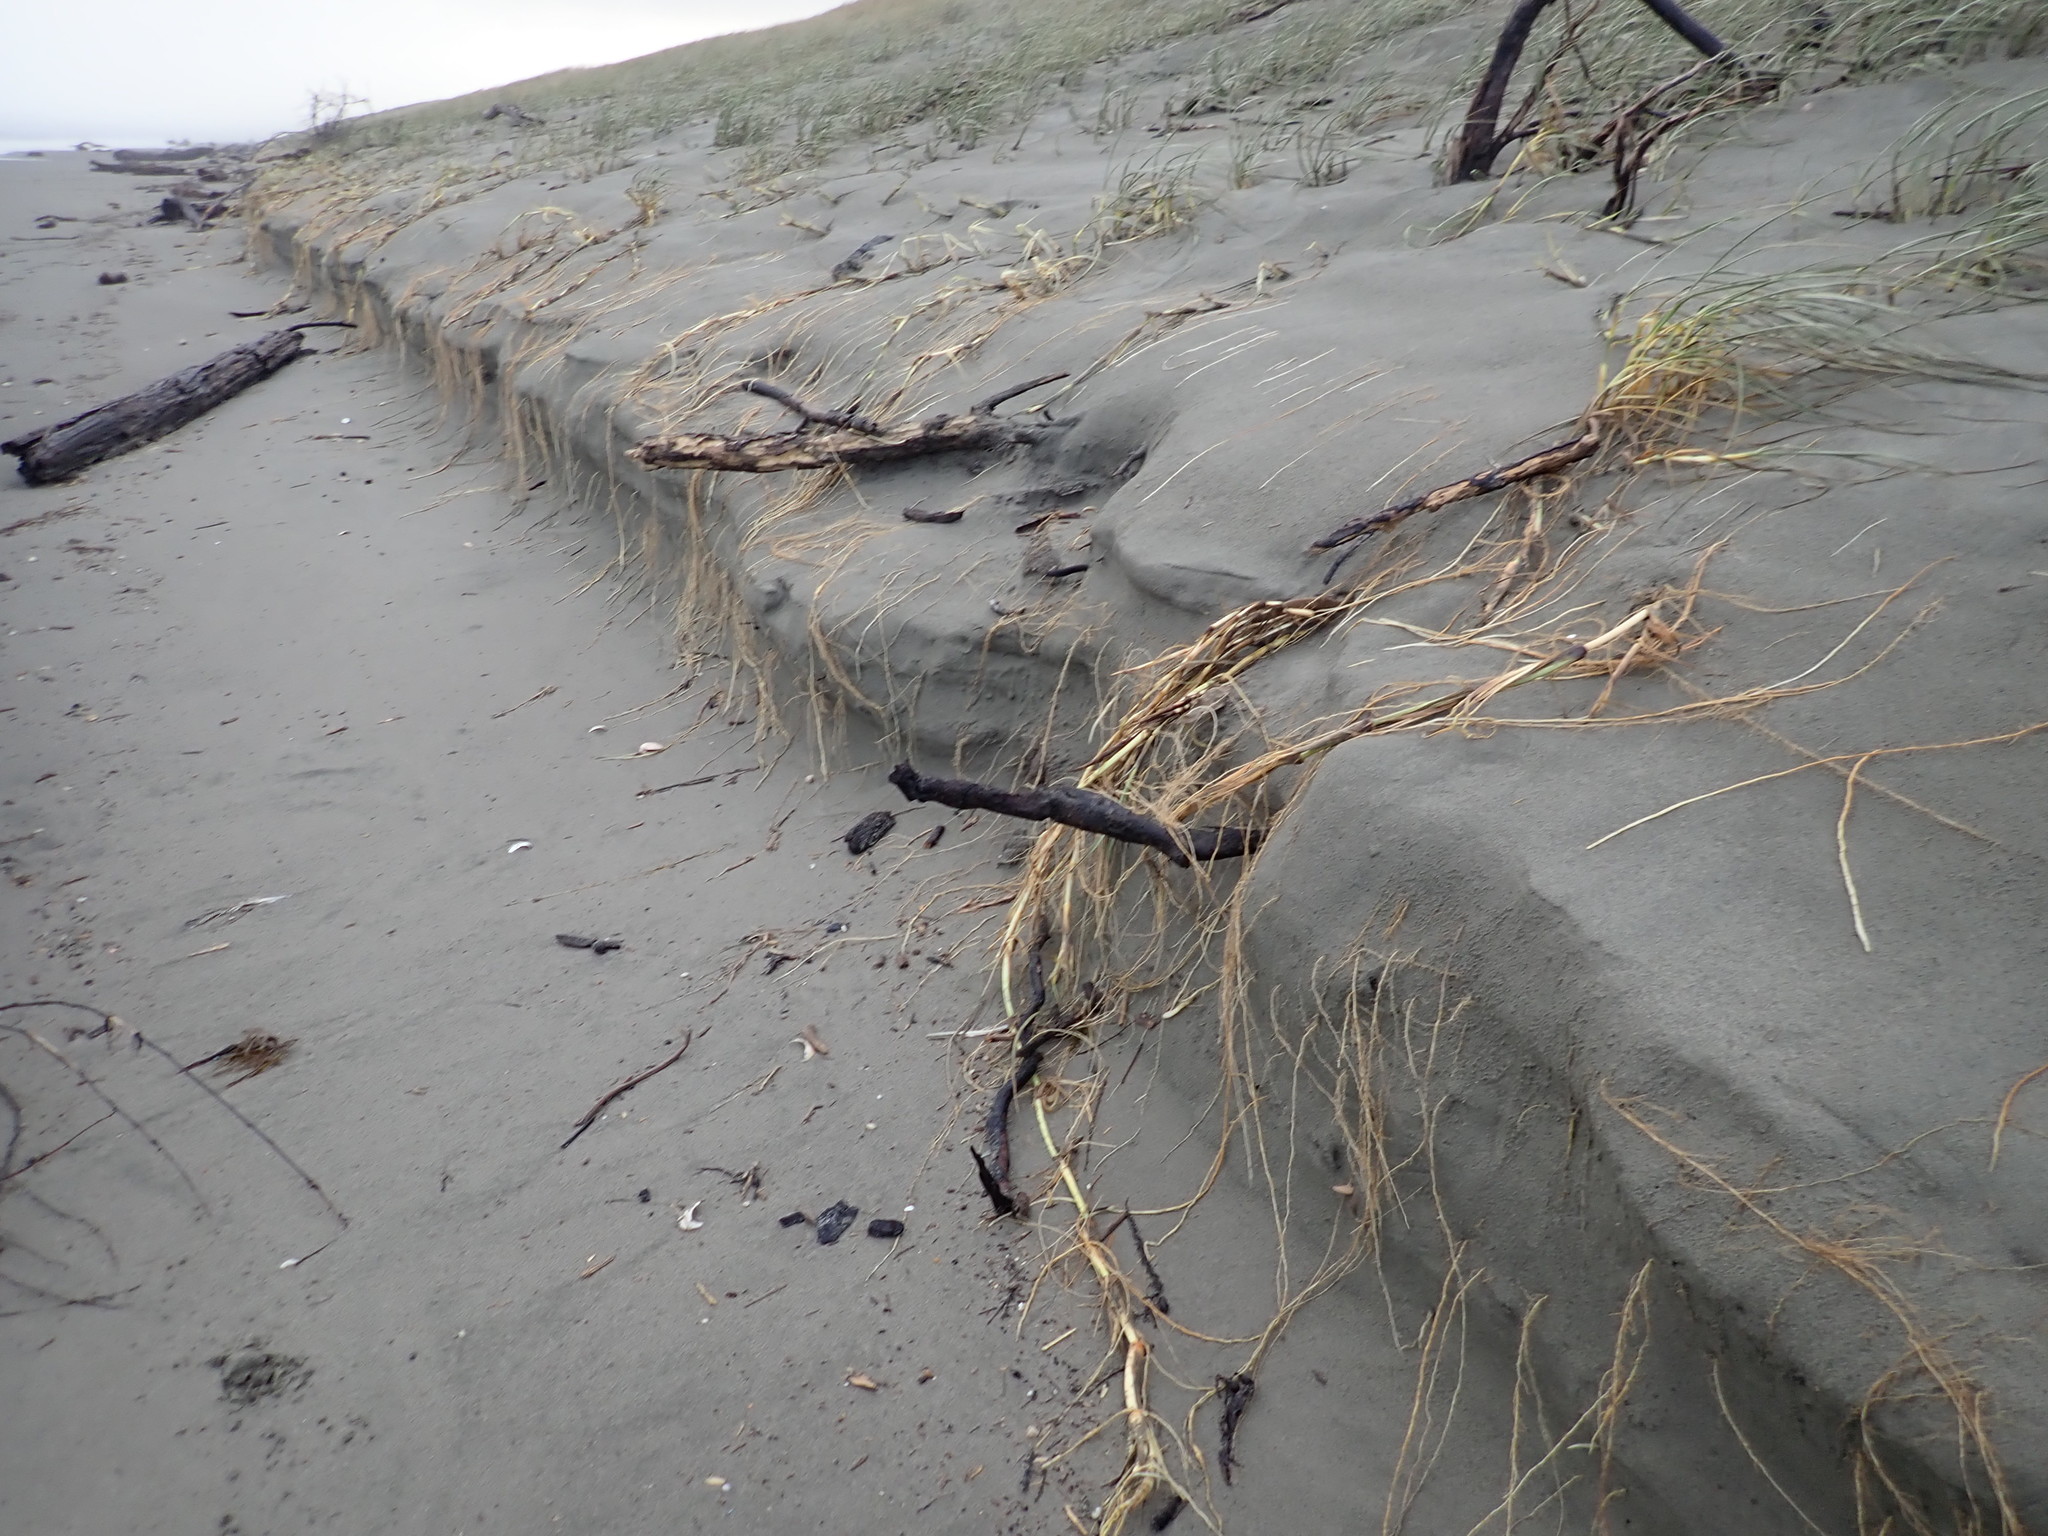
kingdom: Plantae
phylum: Tracheophyta
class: Liliopsida
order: Poales
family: Poaceae
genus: Spinifex
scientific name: Spinifex sericeus
